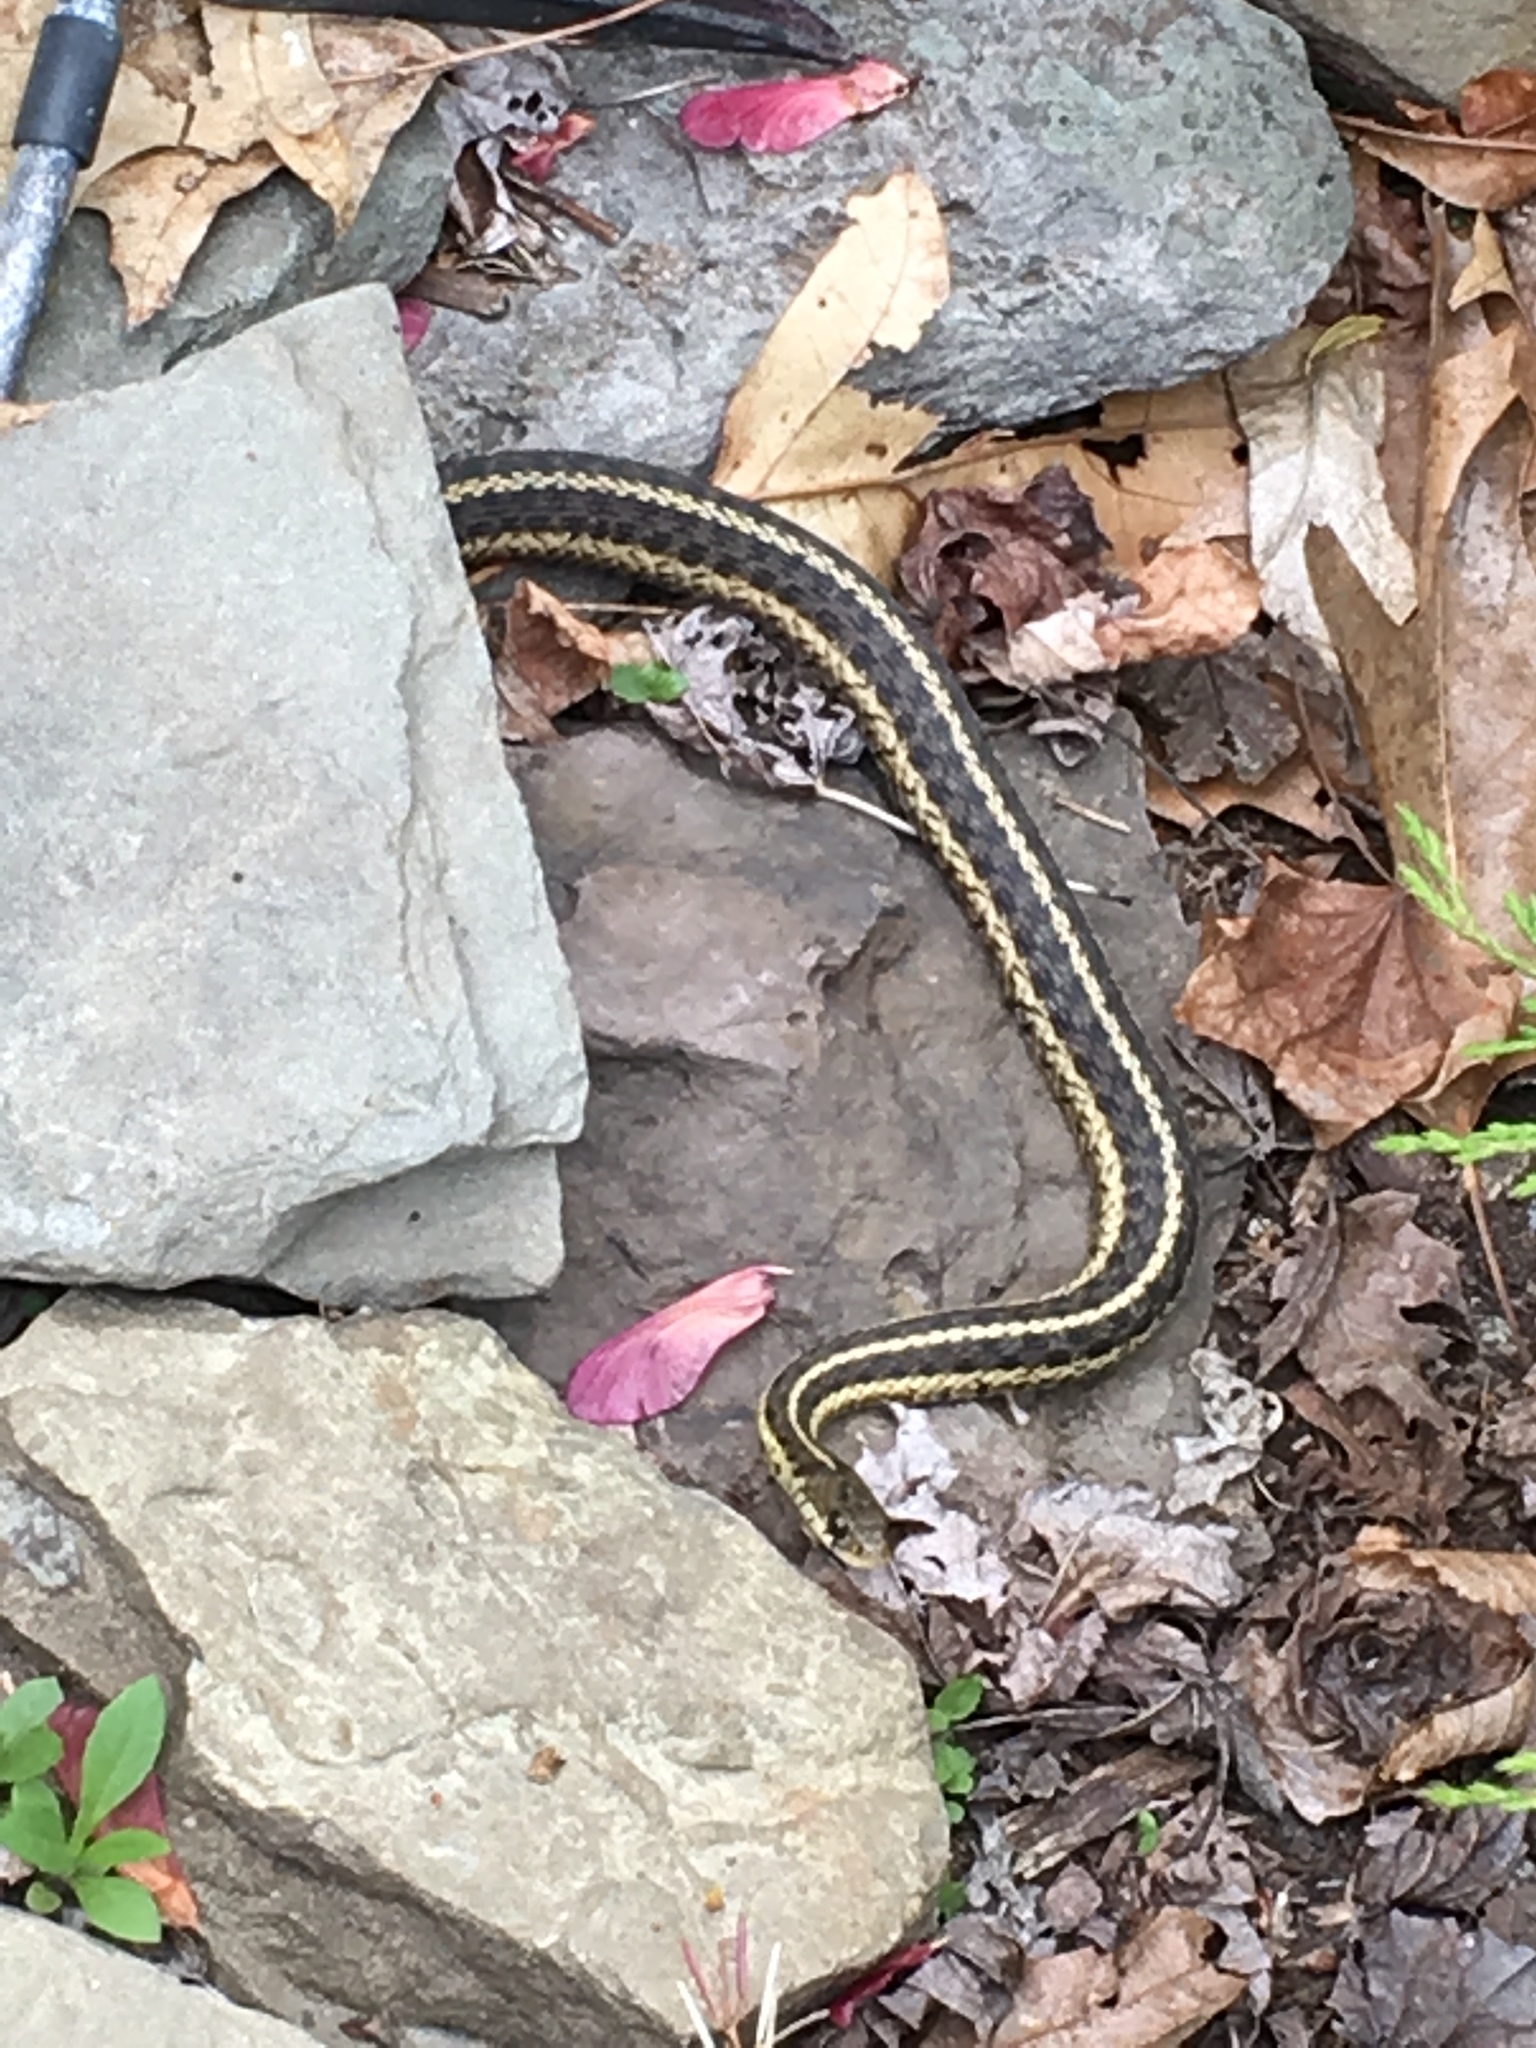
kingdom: Animalia
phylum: Chordata
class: Squamata
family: Colubridae
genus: Thamnophis
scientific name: Thamnophis sirtalis
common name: Common garter snake
